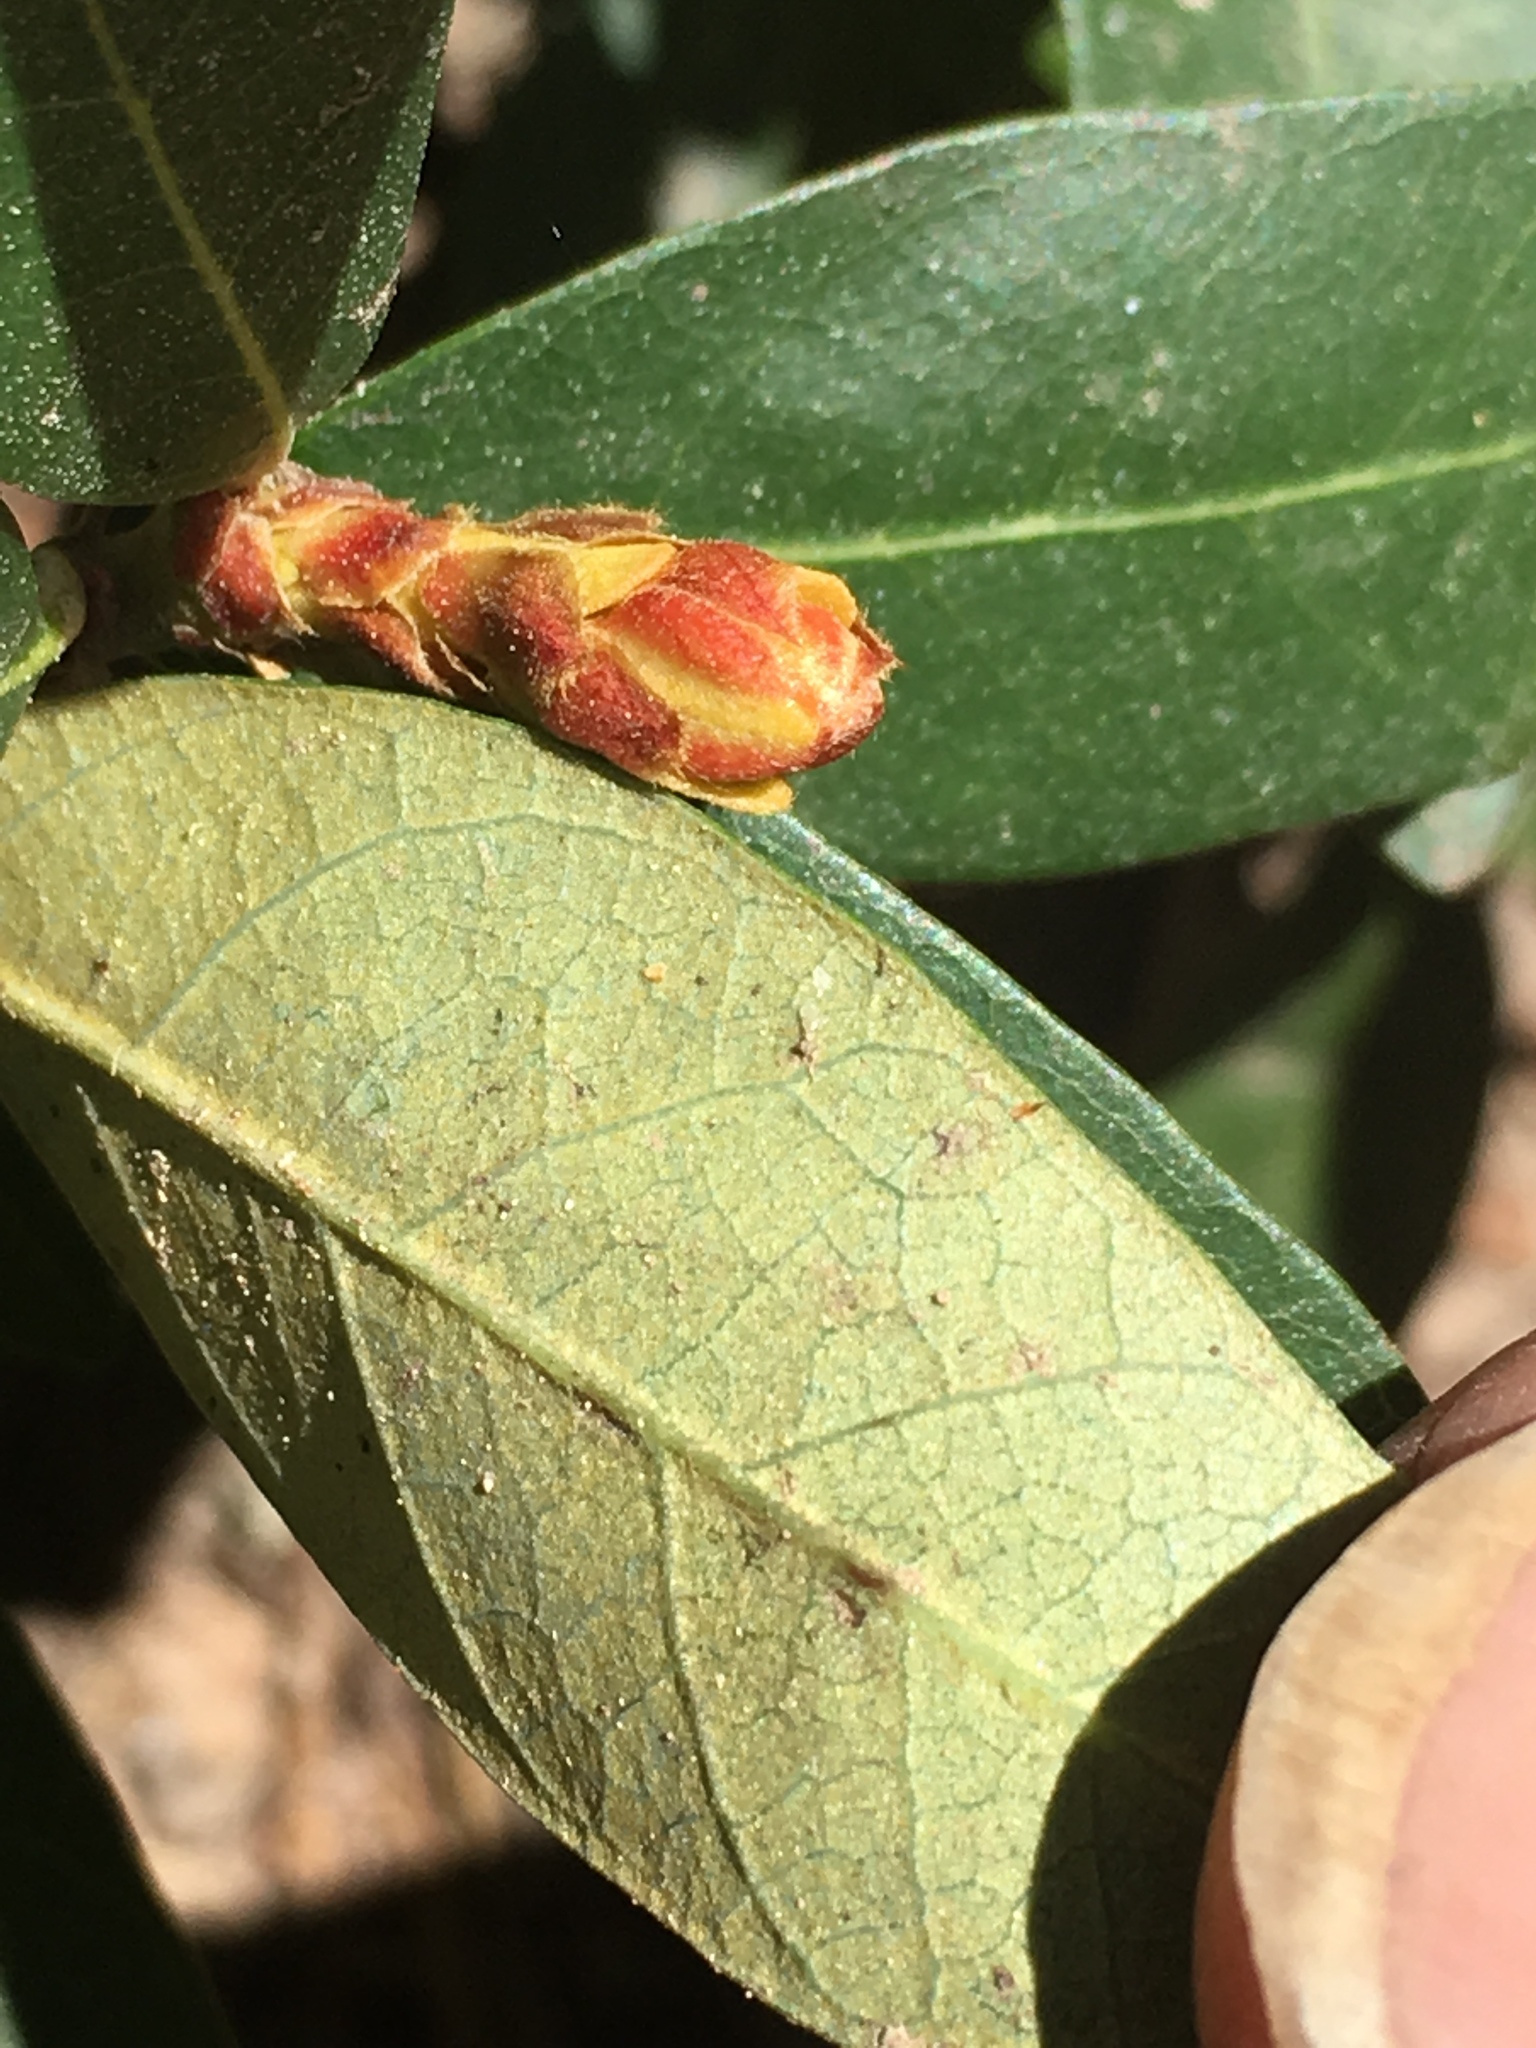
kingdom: Plantae
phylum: Tracheophyta
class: Magnoliopsida
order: Fagales
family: Fagaceae
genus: Chrysolepis
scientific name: Chrysolepis sempervirens
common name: Bush chinquapin
